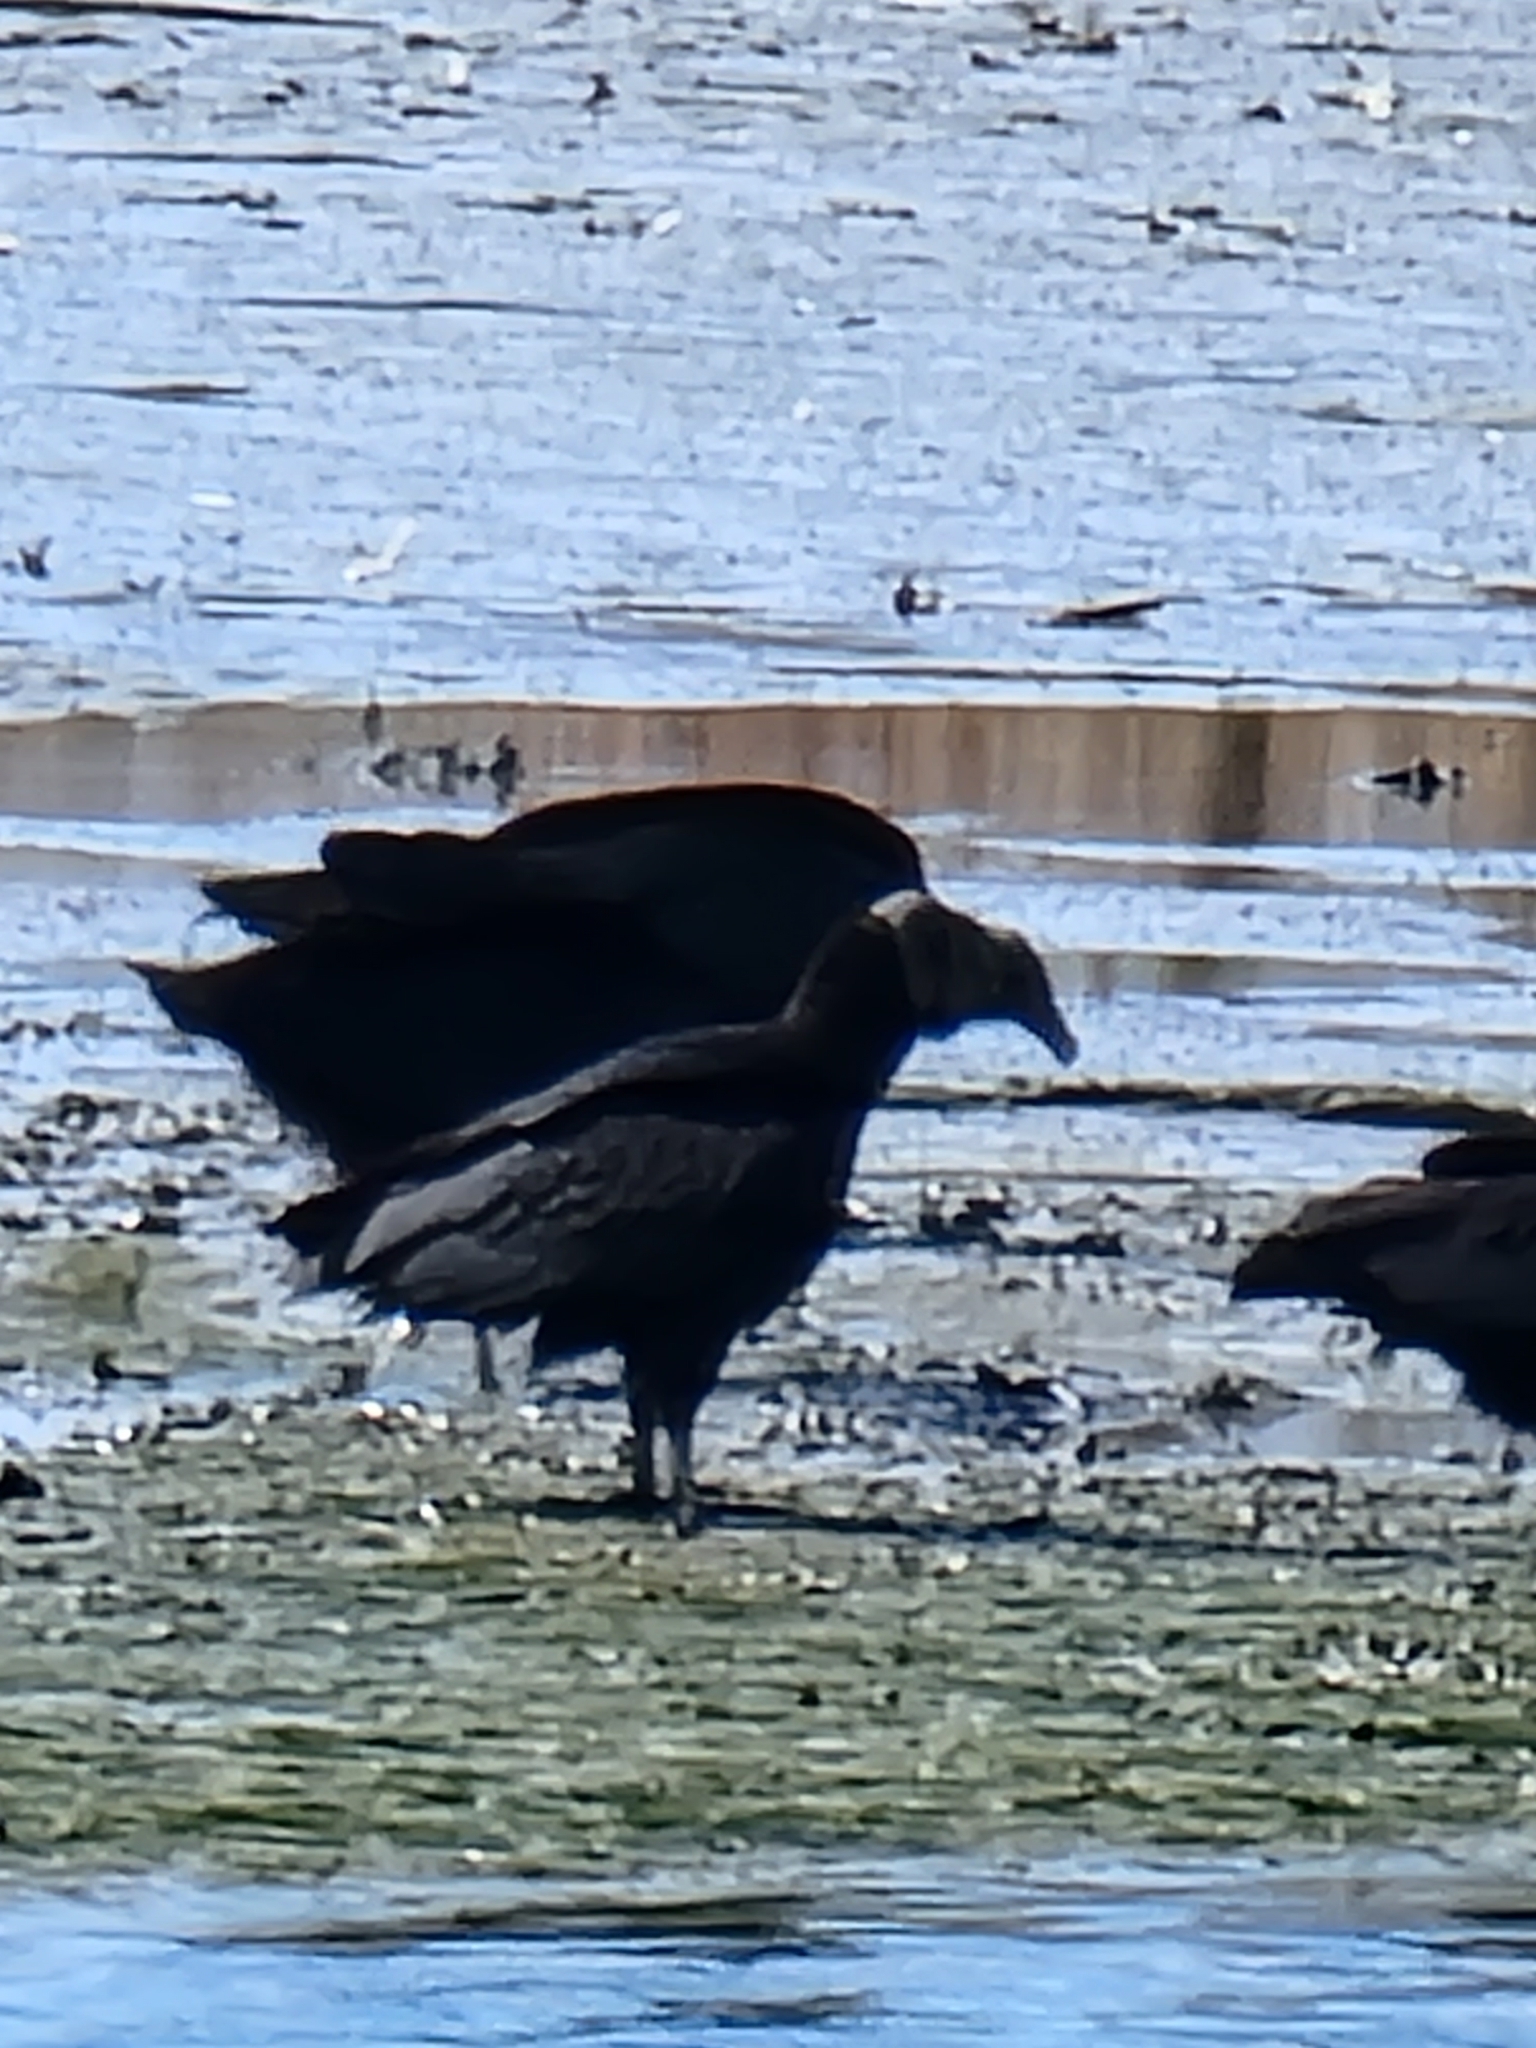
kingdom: Animalia
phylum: Chordata
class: Aves
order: Accipitriformes
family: Cathartidae
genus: Coragyps
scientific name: Coragyps atratus
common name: Black vulture
